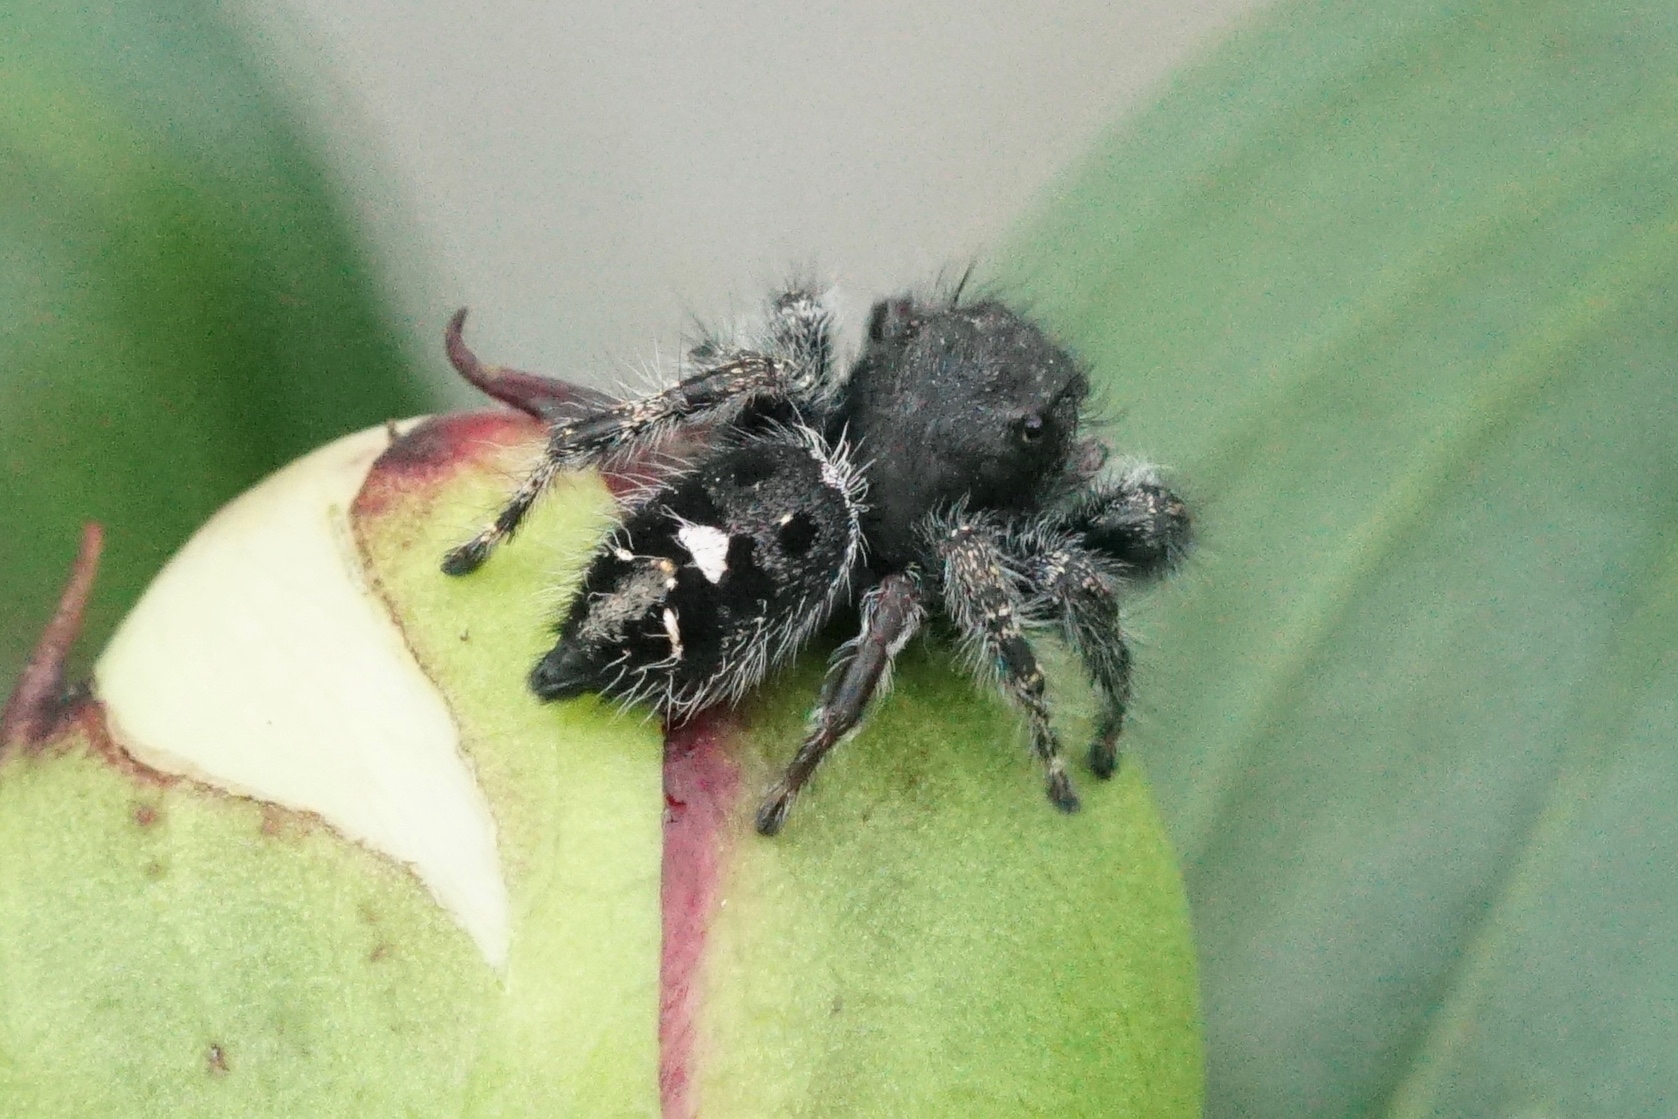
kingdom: Animalia
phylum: Arthropoda
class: Arachnida
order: Araneae
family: Salticidae
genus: Phidippus
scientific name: Phidippus audax
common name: Bold jumper
